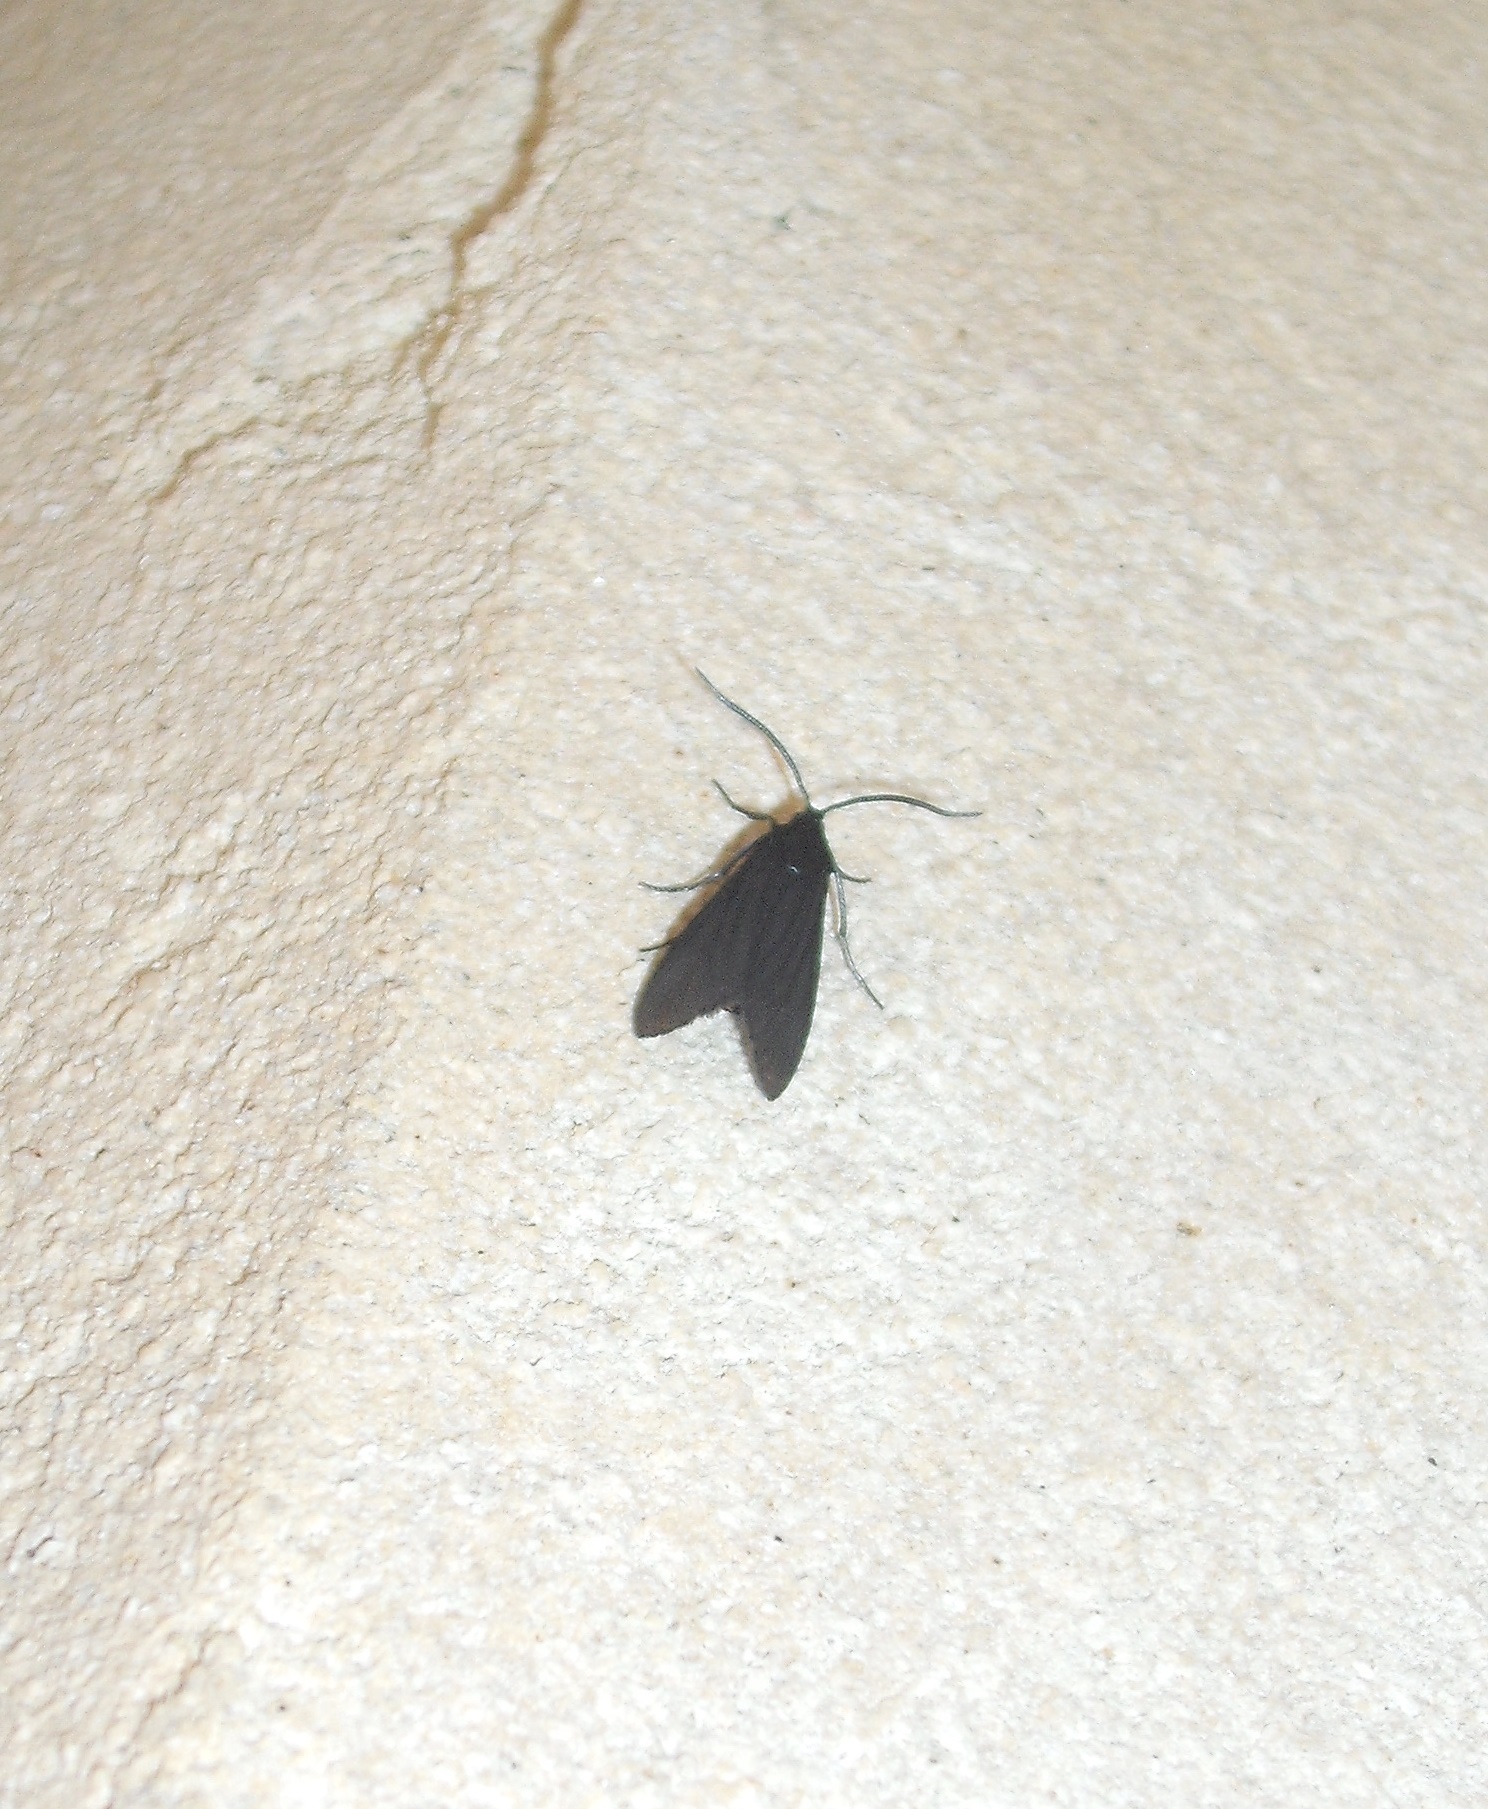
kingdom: Animalia
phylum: Arthropoda
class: Insecta
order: Lepidoptera
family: Zygaenidae
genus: Artona
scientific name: Artona martini
